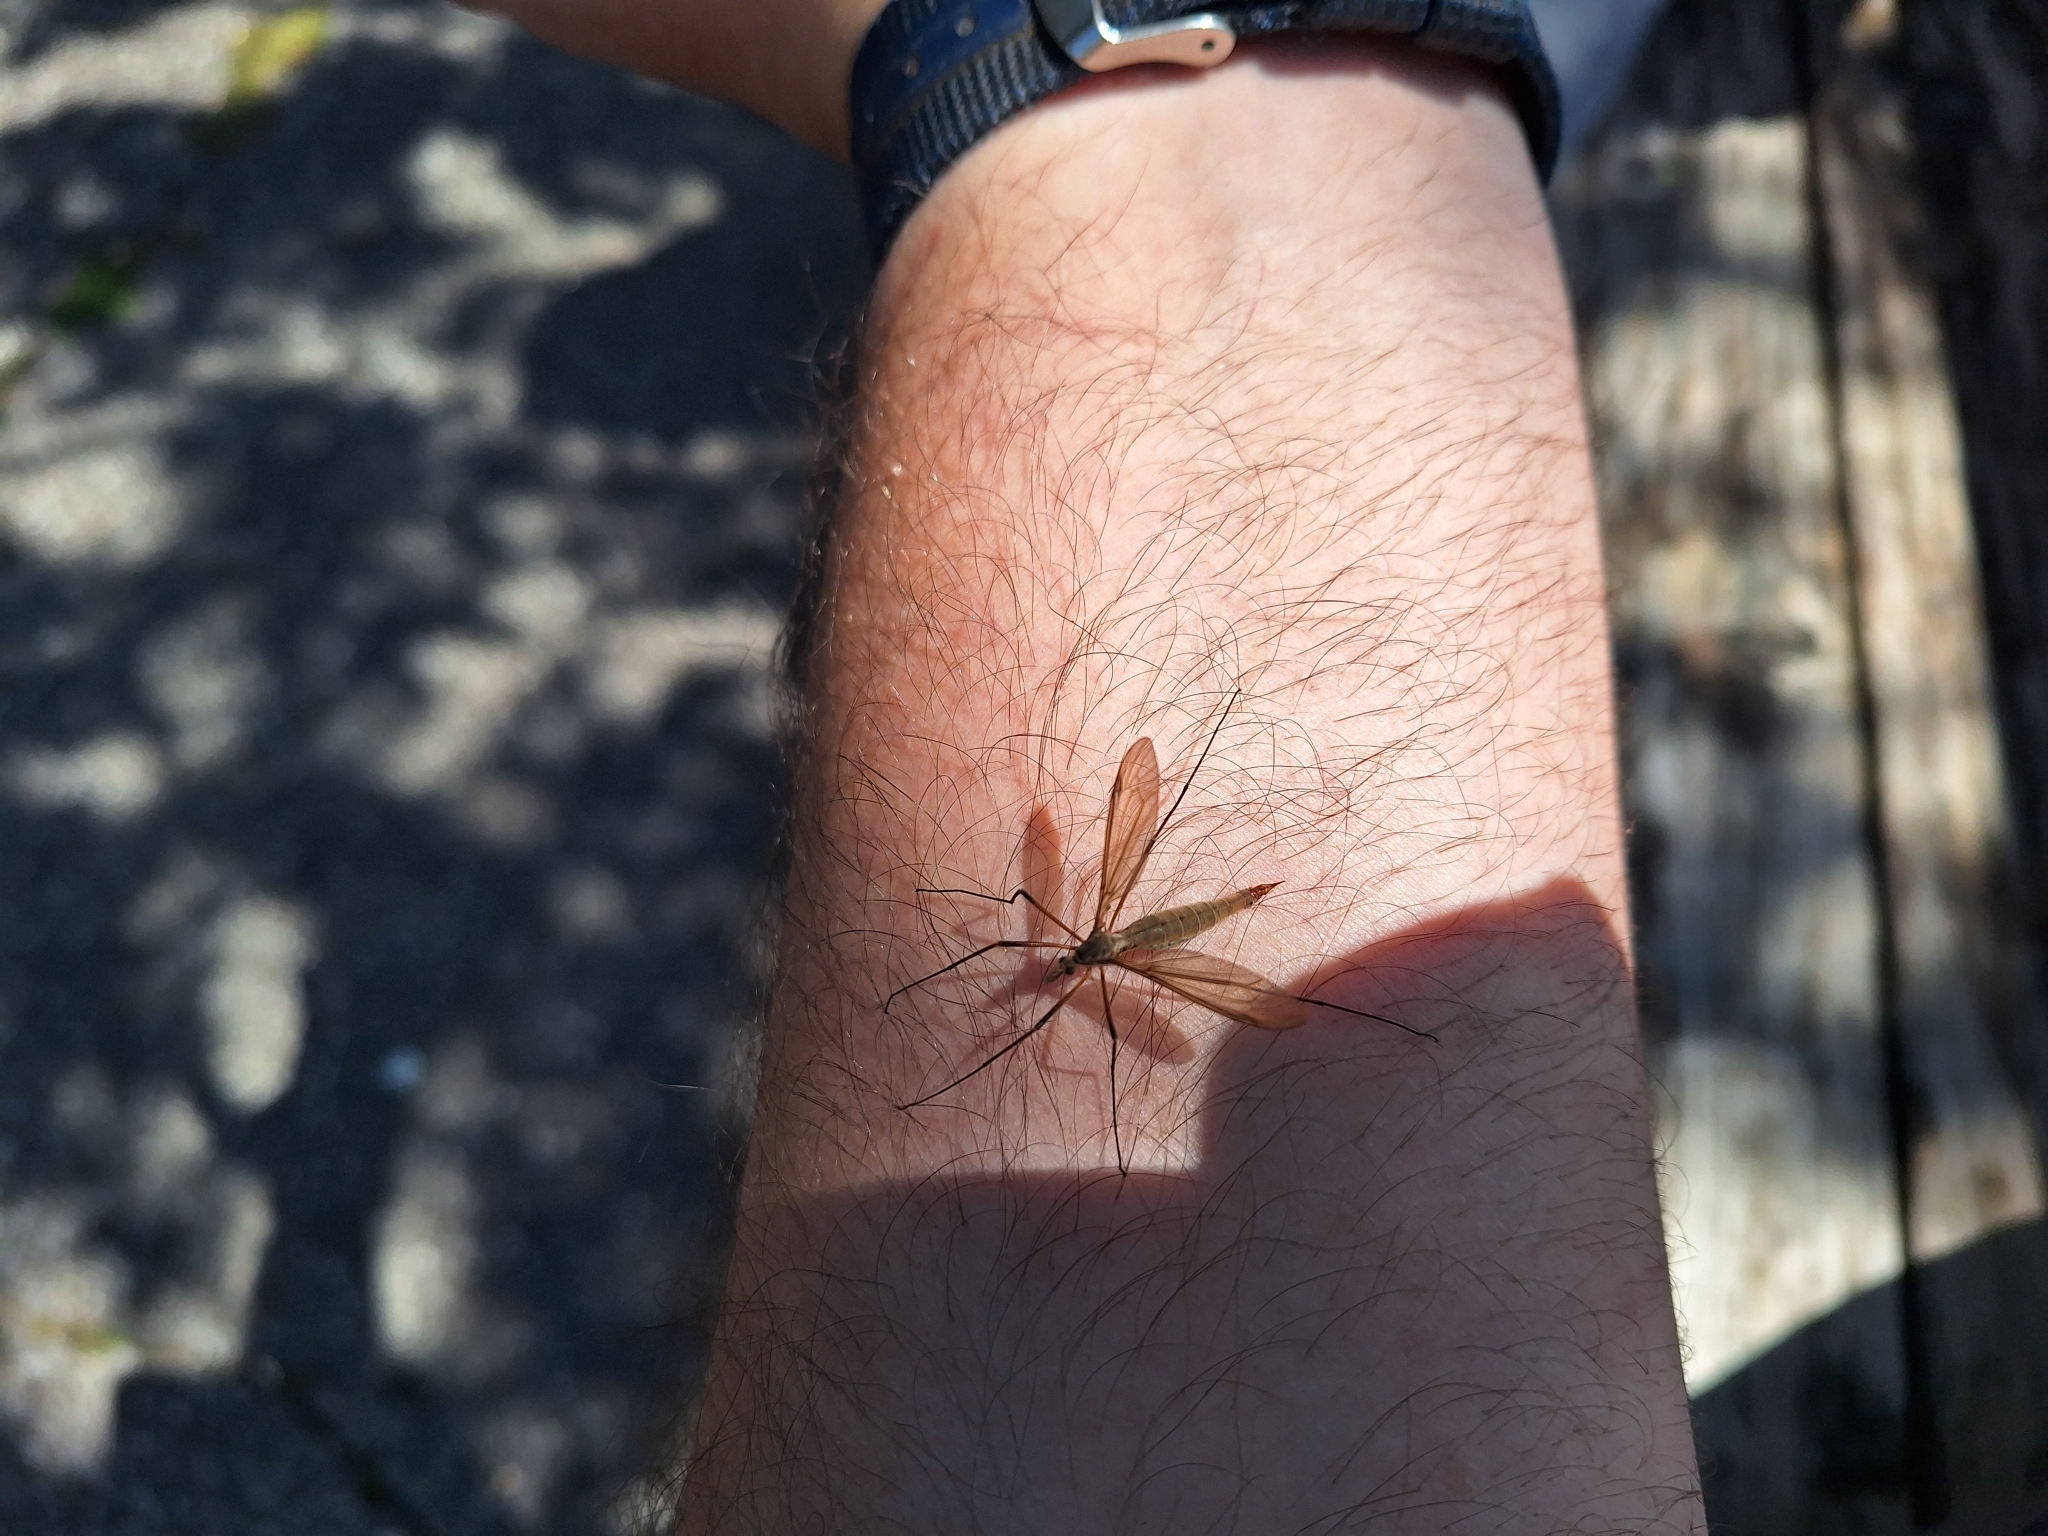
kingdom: Animalia
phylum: Arthropoda
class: Insecta
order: Diptera
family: Tipulidae
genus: Tipula
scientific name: Tipula paludosa
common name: European cranefly
